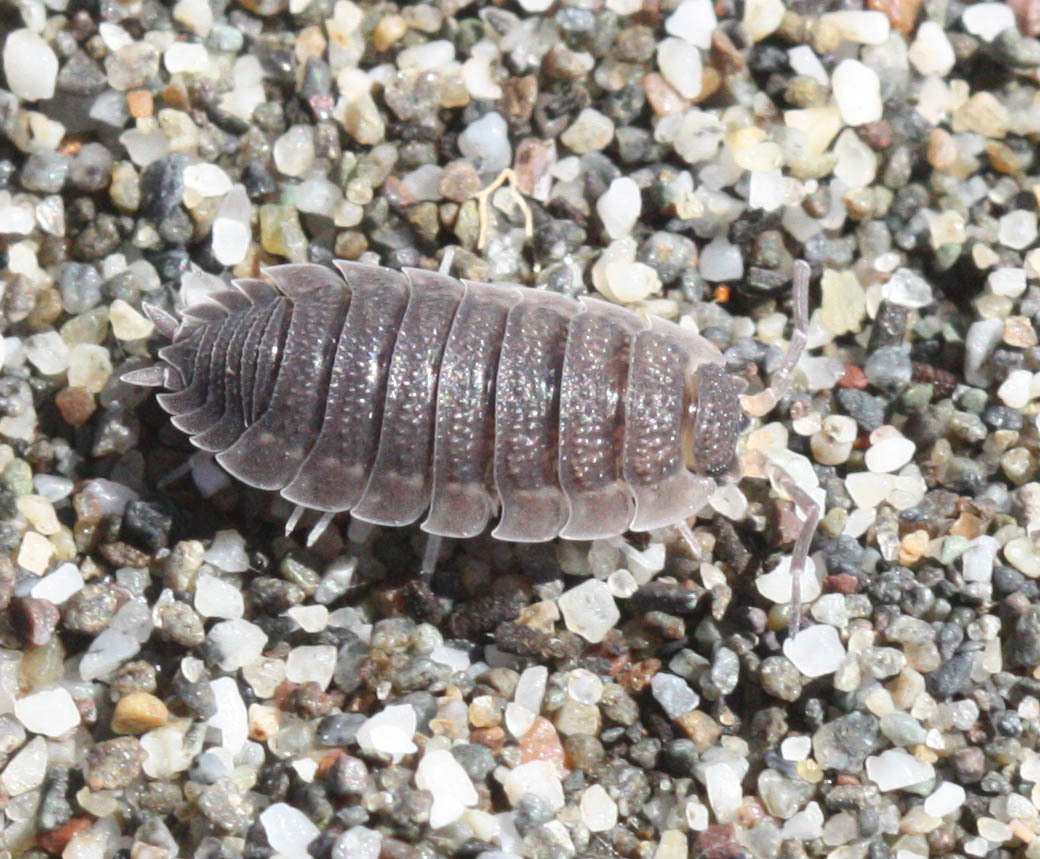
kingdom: Animalia
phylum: Arthropoda
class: Malacostraca
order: Isopoda
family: Porcellionidae
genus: Porcellio
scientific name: Porcellio scaber
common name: Common rough woodlouse
